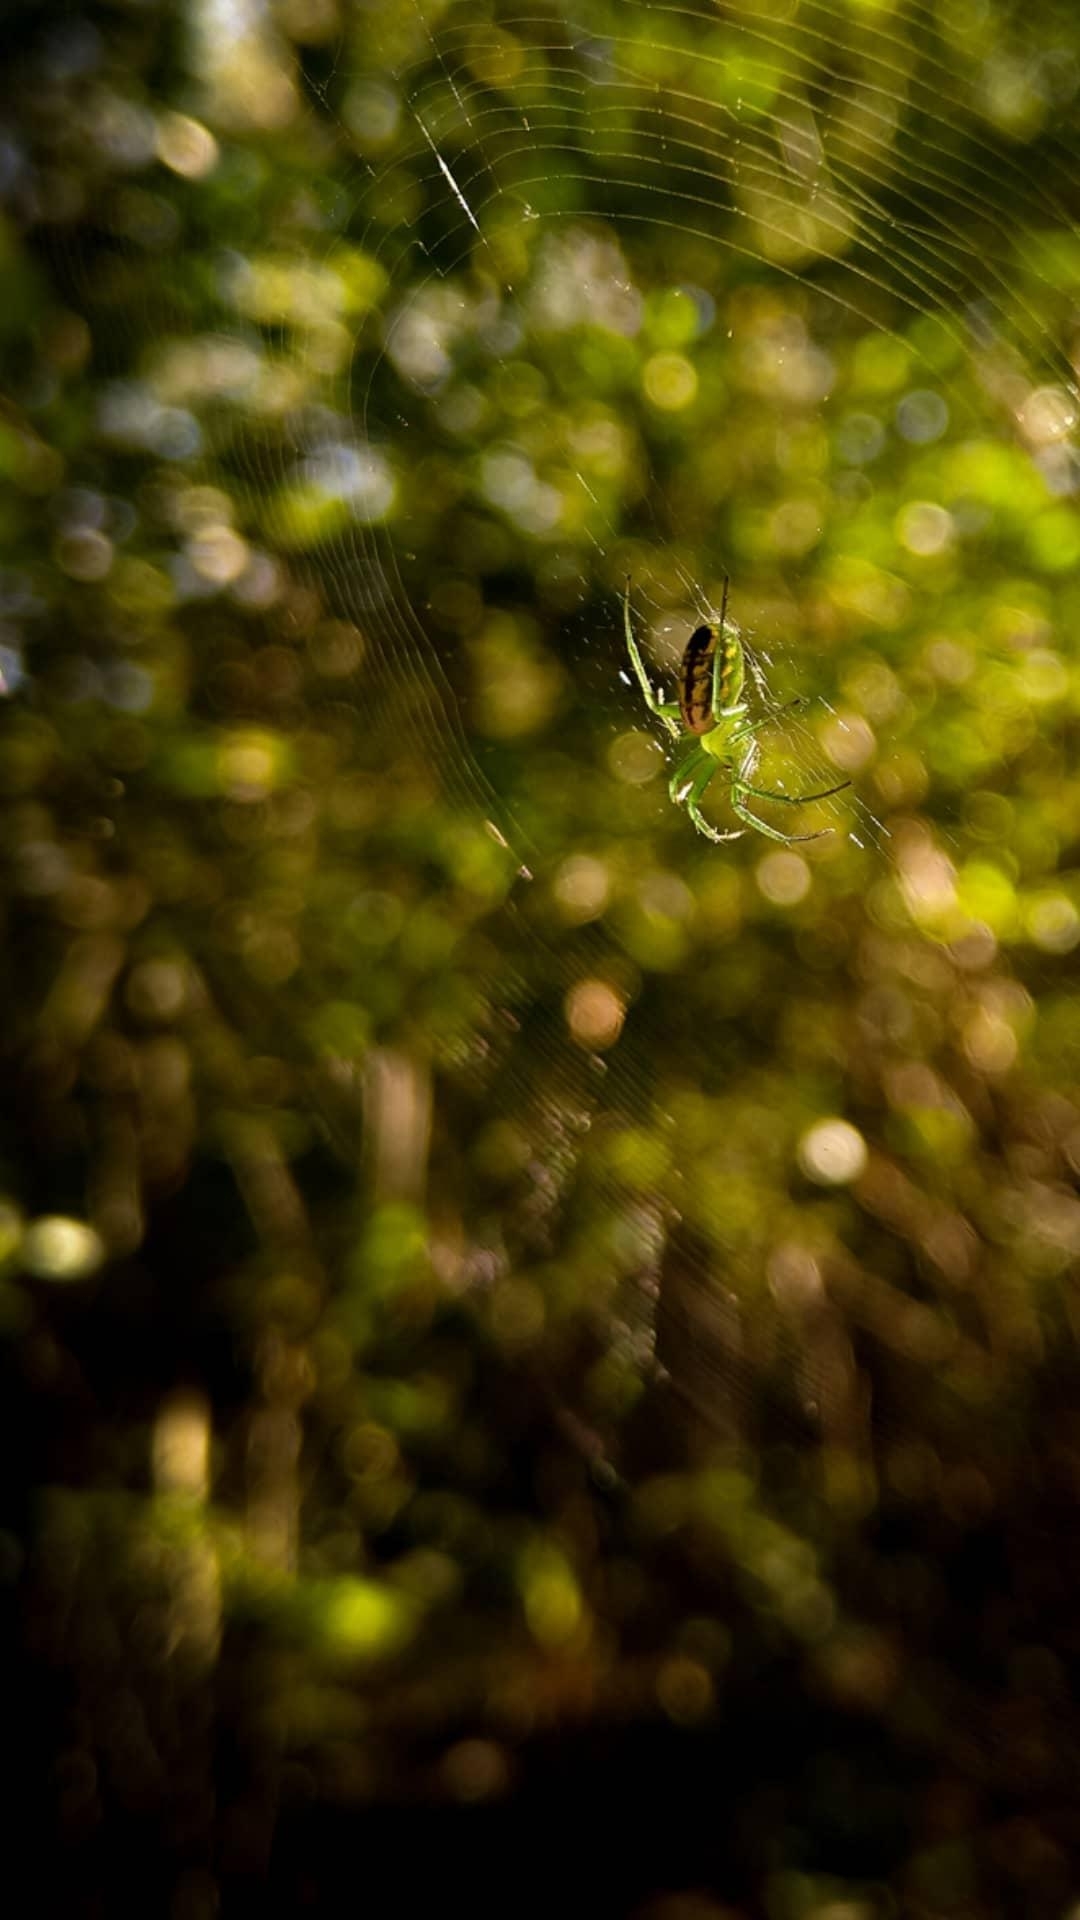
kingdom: Animalia
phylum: Arthropoda
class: Arachnida
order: Araneae
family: Araneidae
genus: Mangora
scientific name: Mangora lactea
